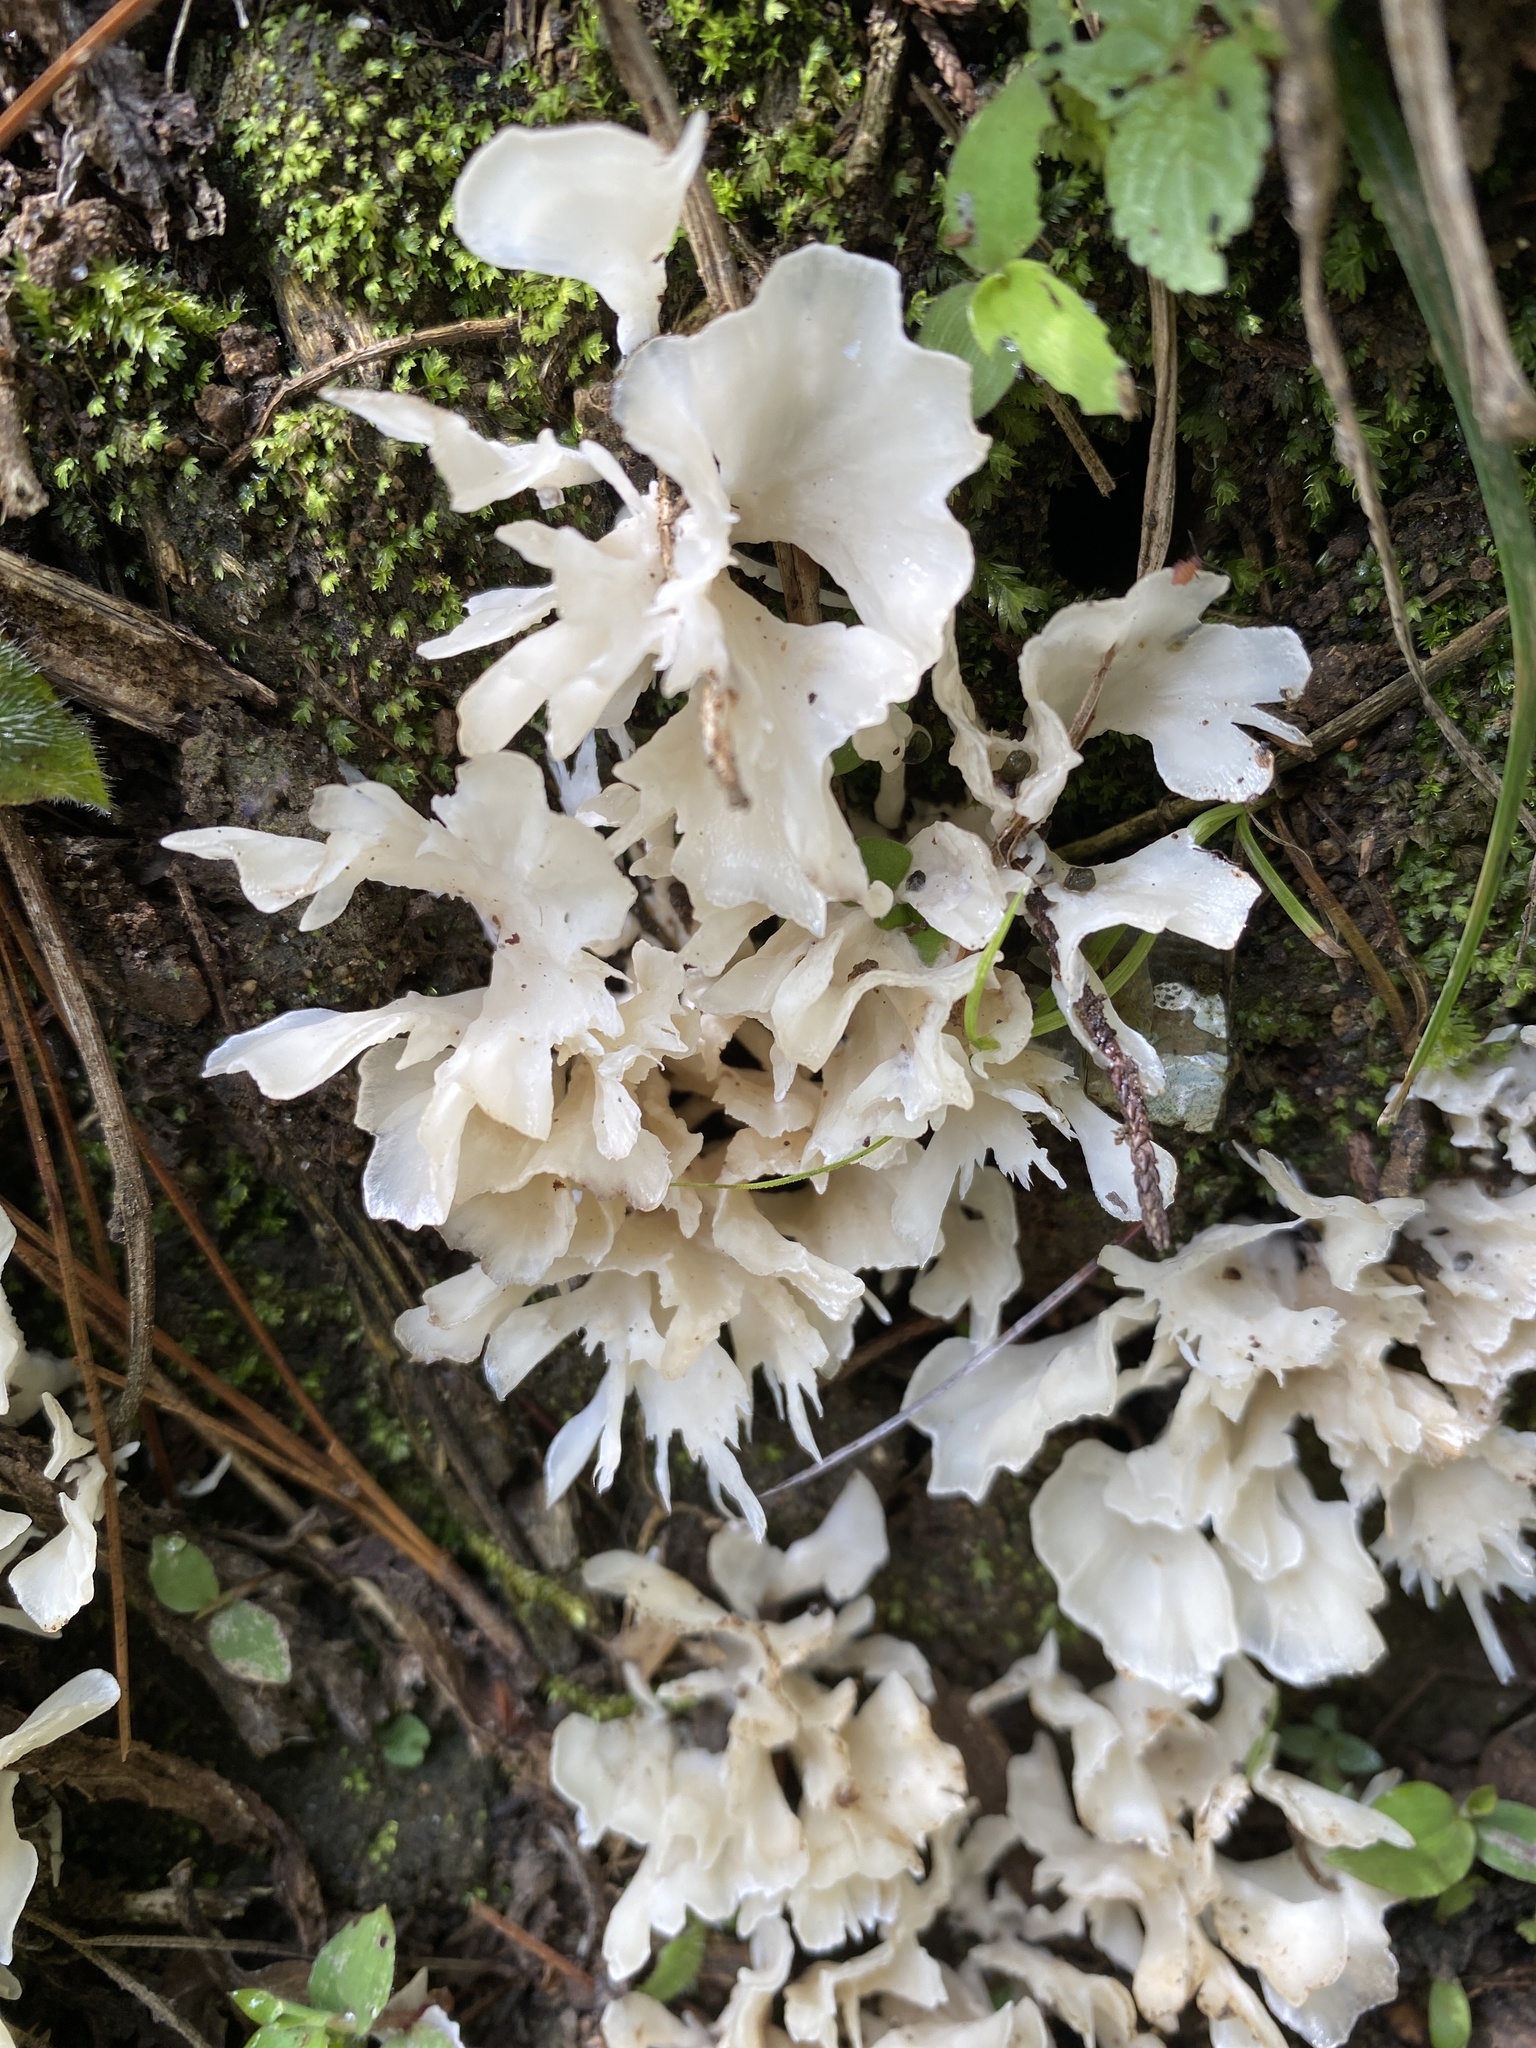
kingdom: Fungi
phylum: Basidiomycota
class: Agaricomycetes
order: Polyporales
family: Irpicaceae
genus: Irpex
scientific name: Irpex rosettiformis
